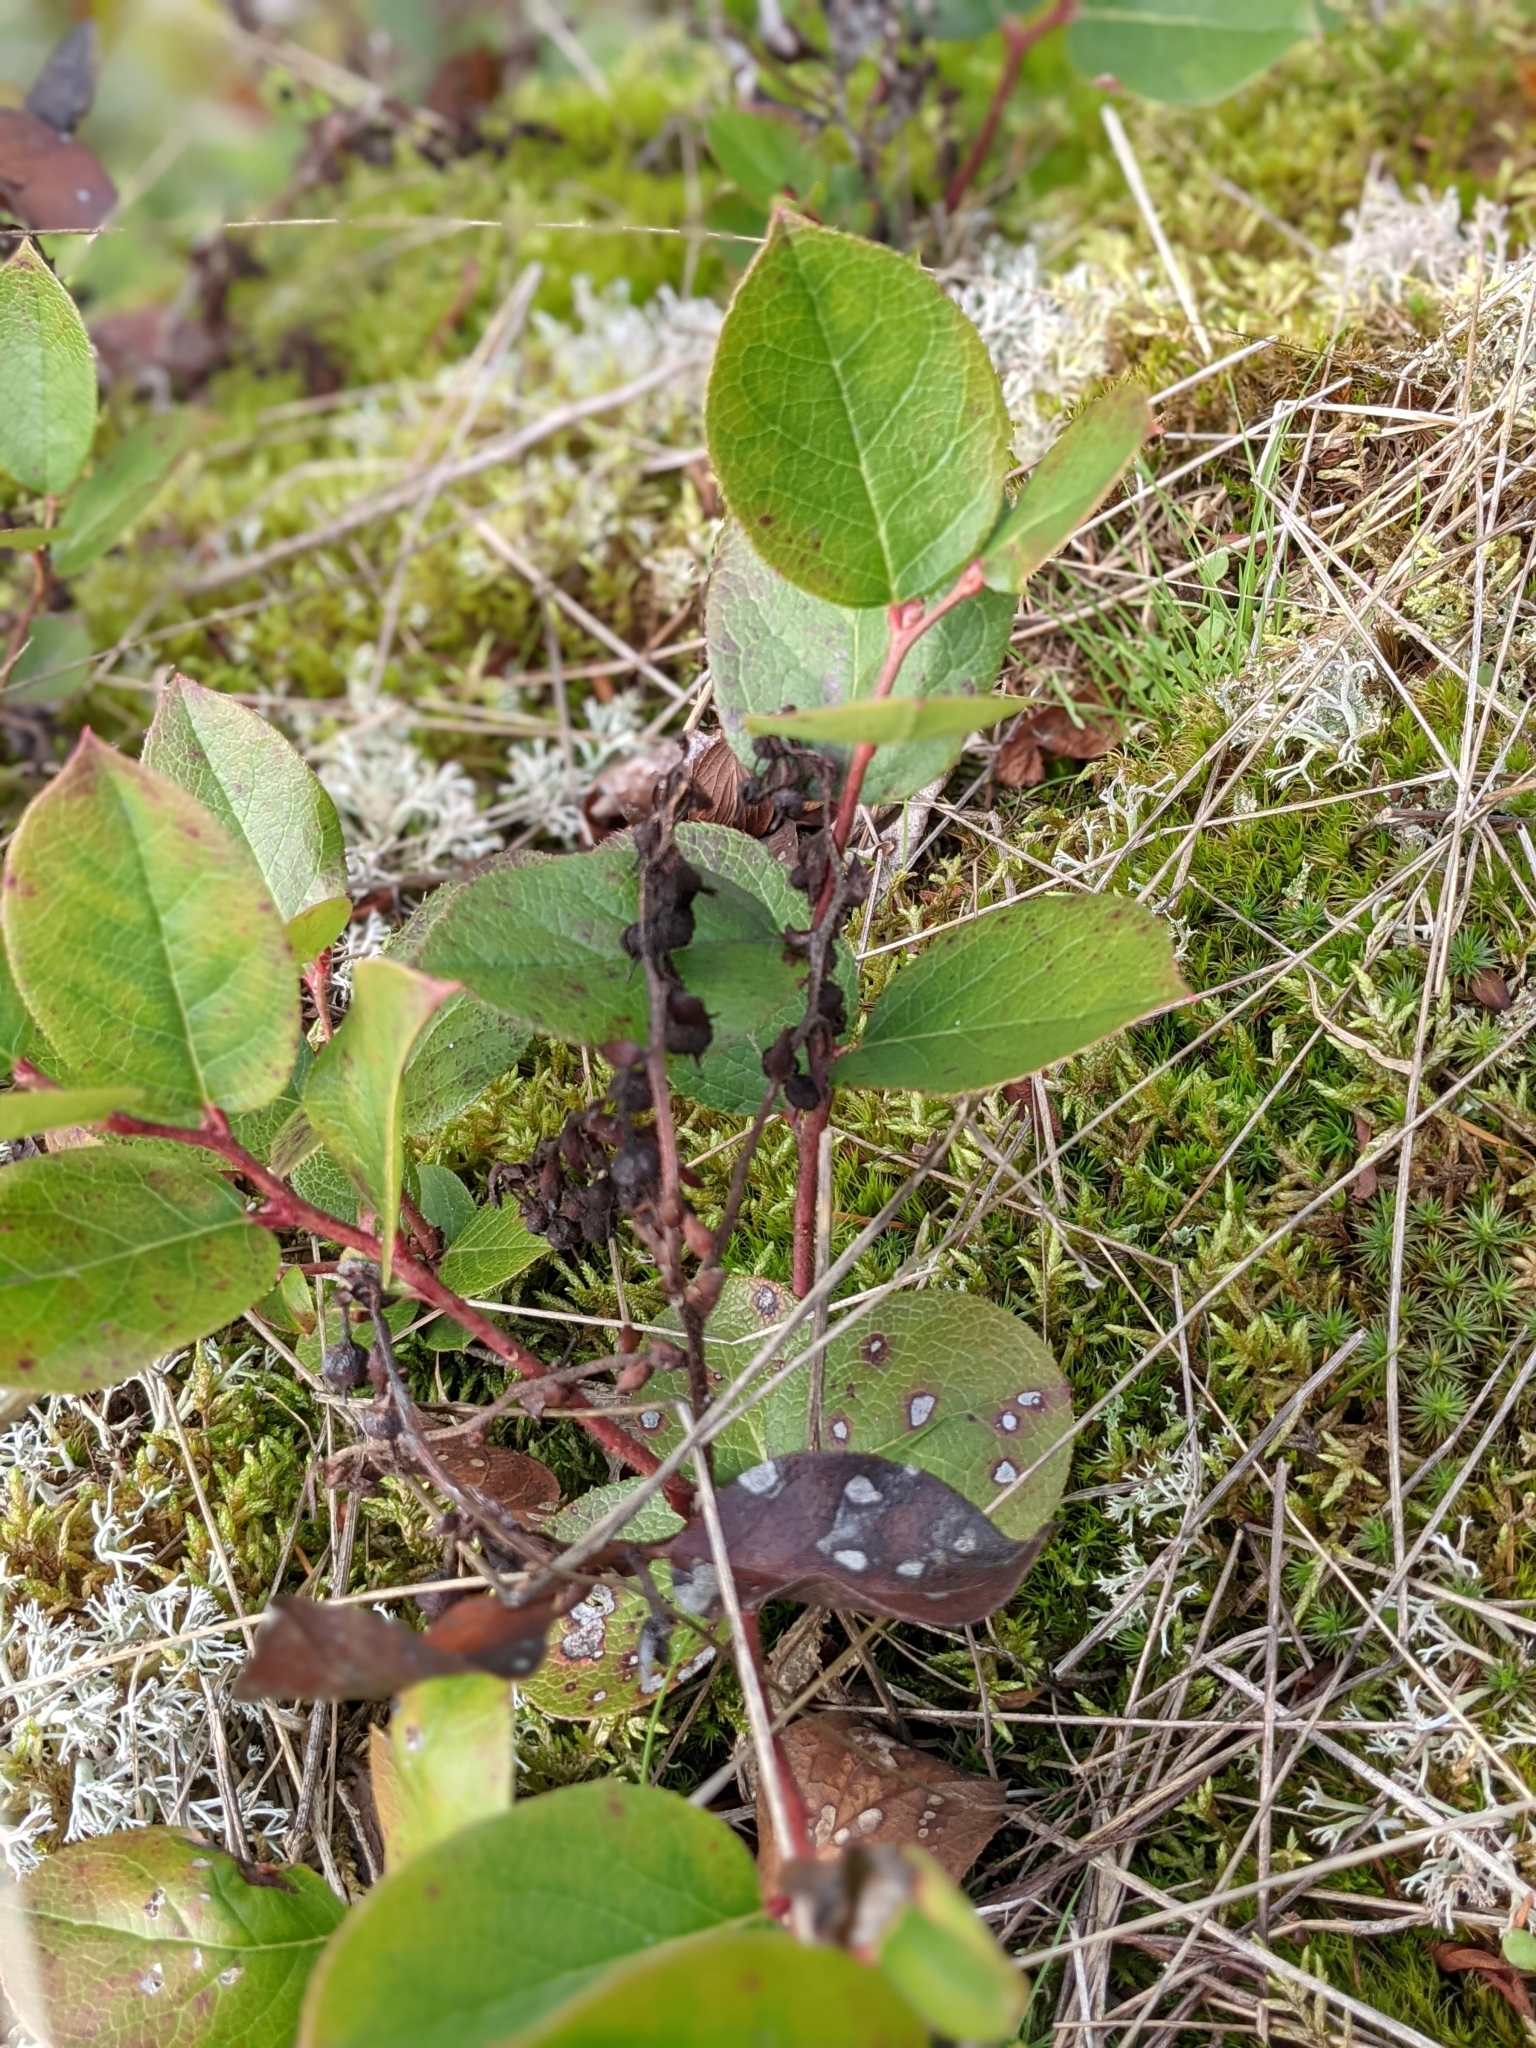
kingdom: Plantae
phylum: Tracheophyta
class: Magnoliopsida
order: Ericales
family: Ericaceae
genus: Gaultheria
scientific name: Gaultheria shallon
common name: Shallon
